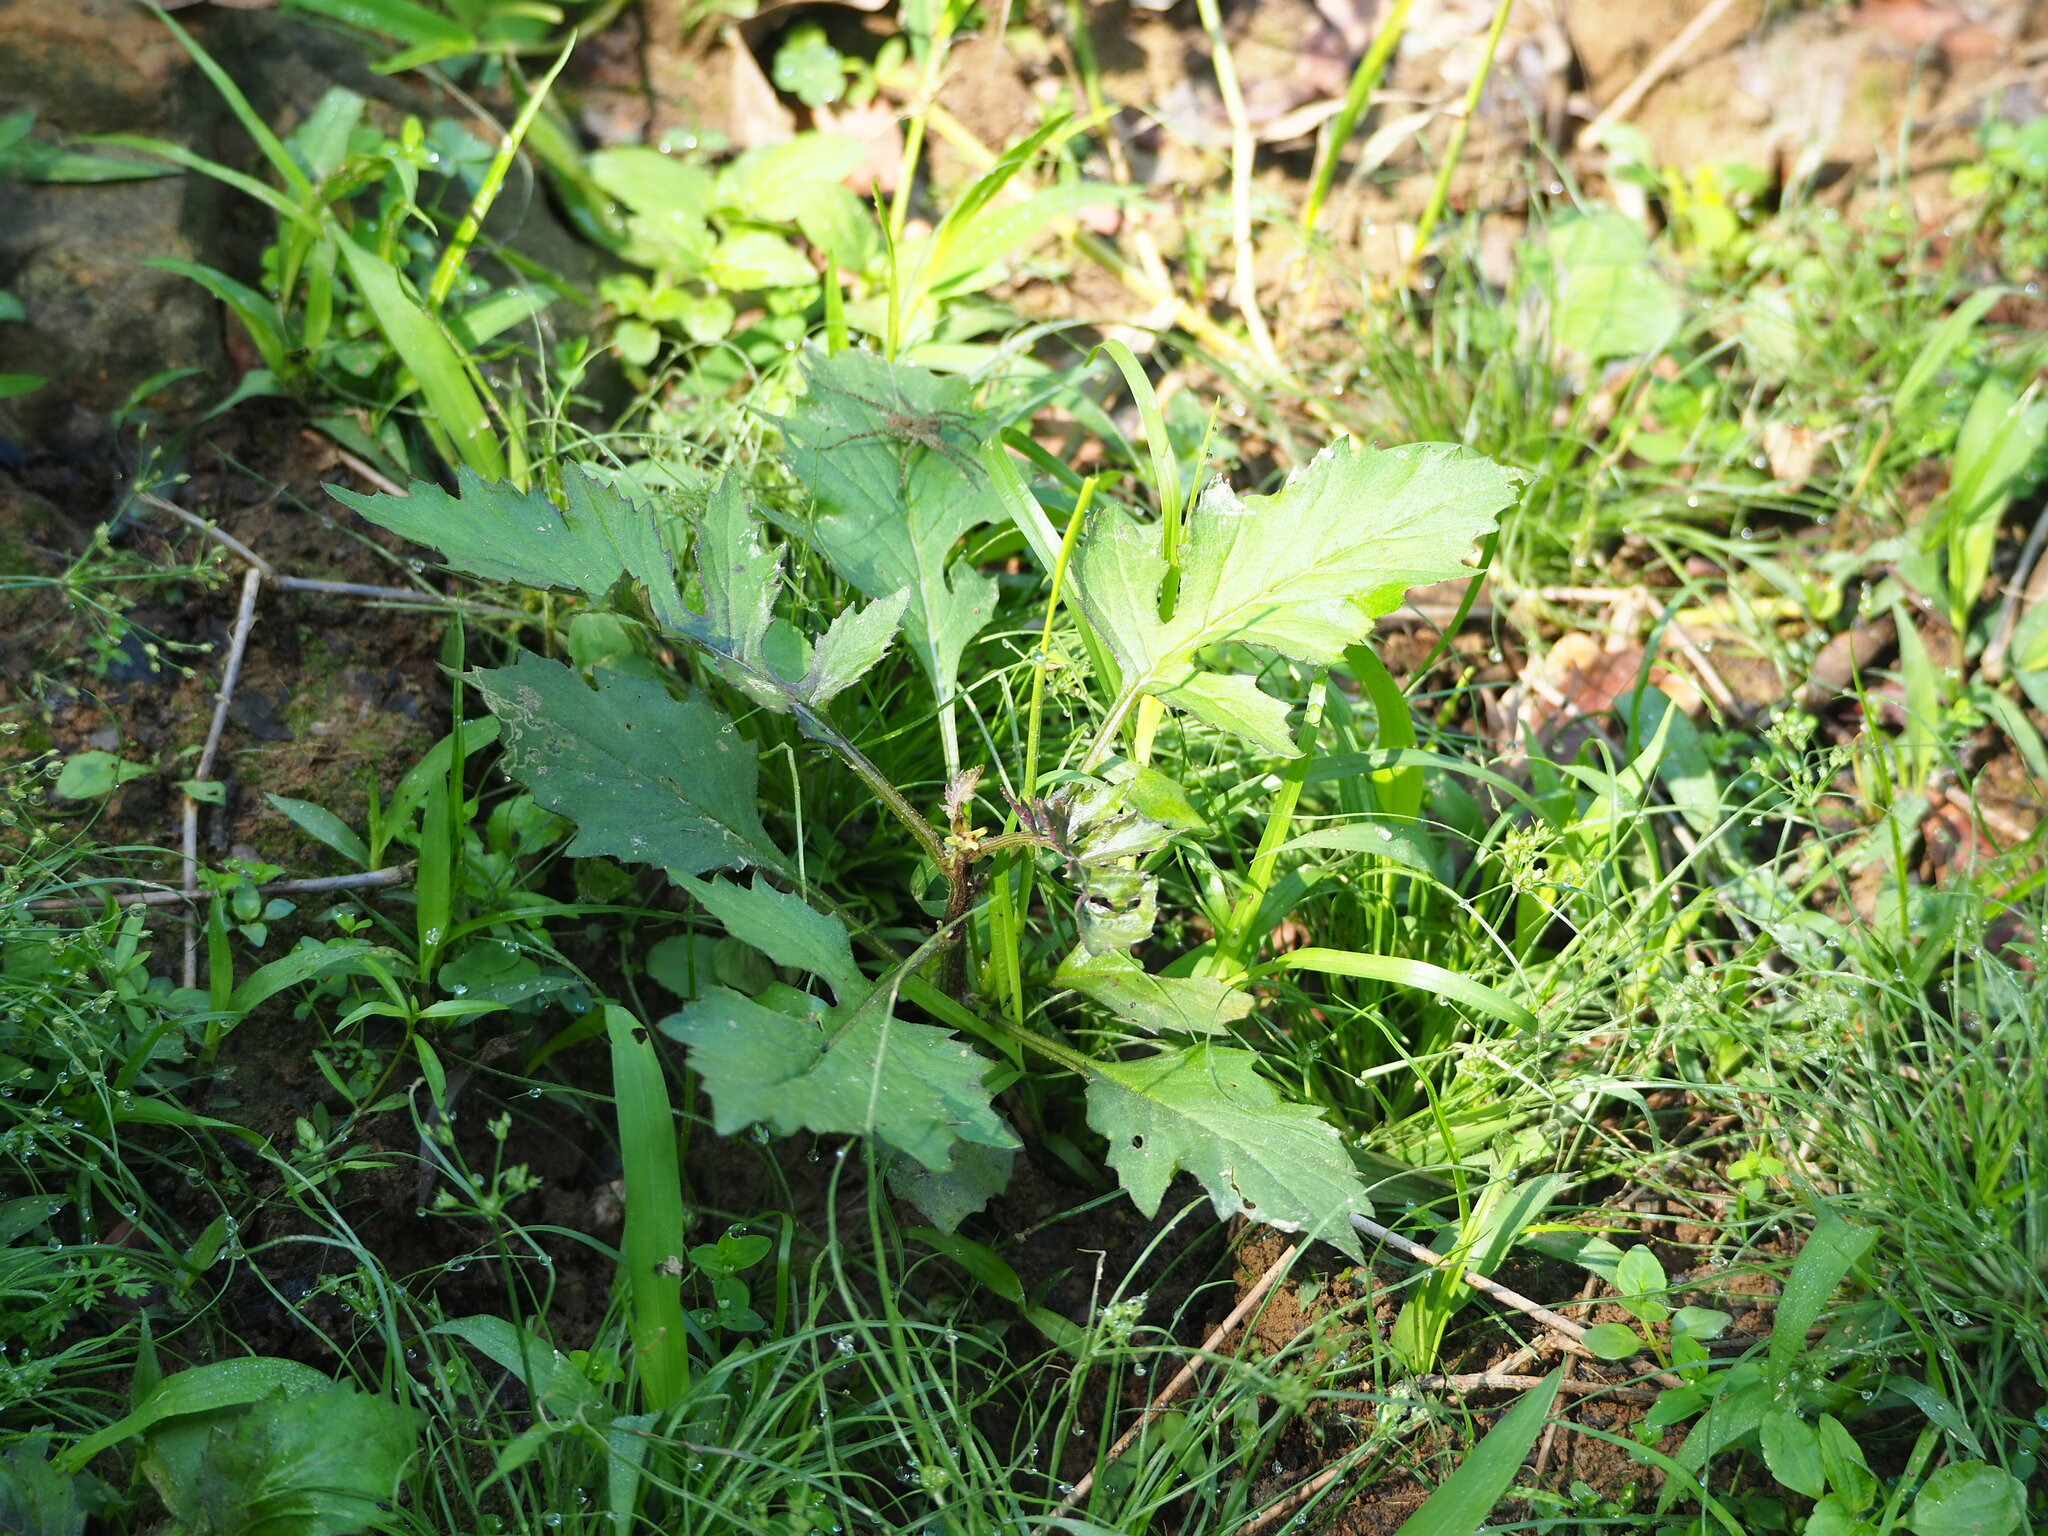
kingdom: Plantae
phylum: Tracheophyta
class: Magnoliopsida
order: Asterales
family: Asteraceae
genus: Erechtites
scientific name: Erechtites valerianifolius
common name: Tropical burnweed
